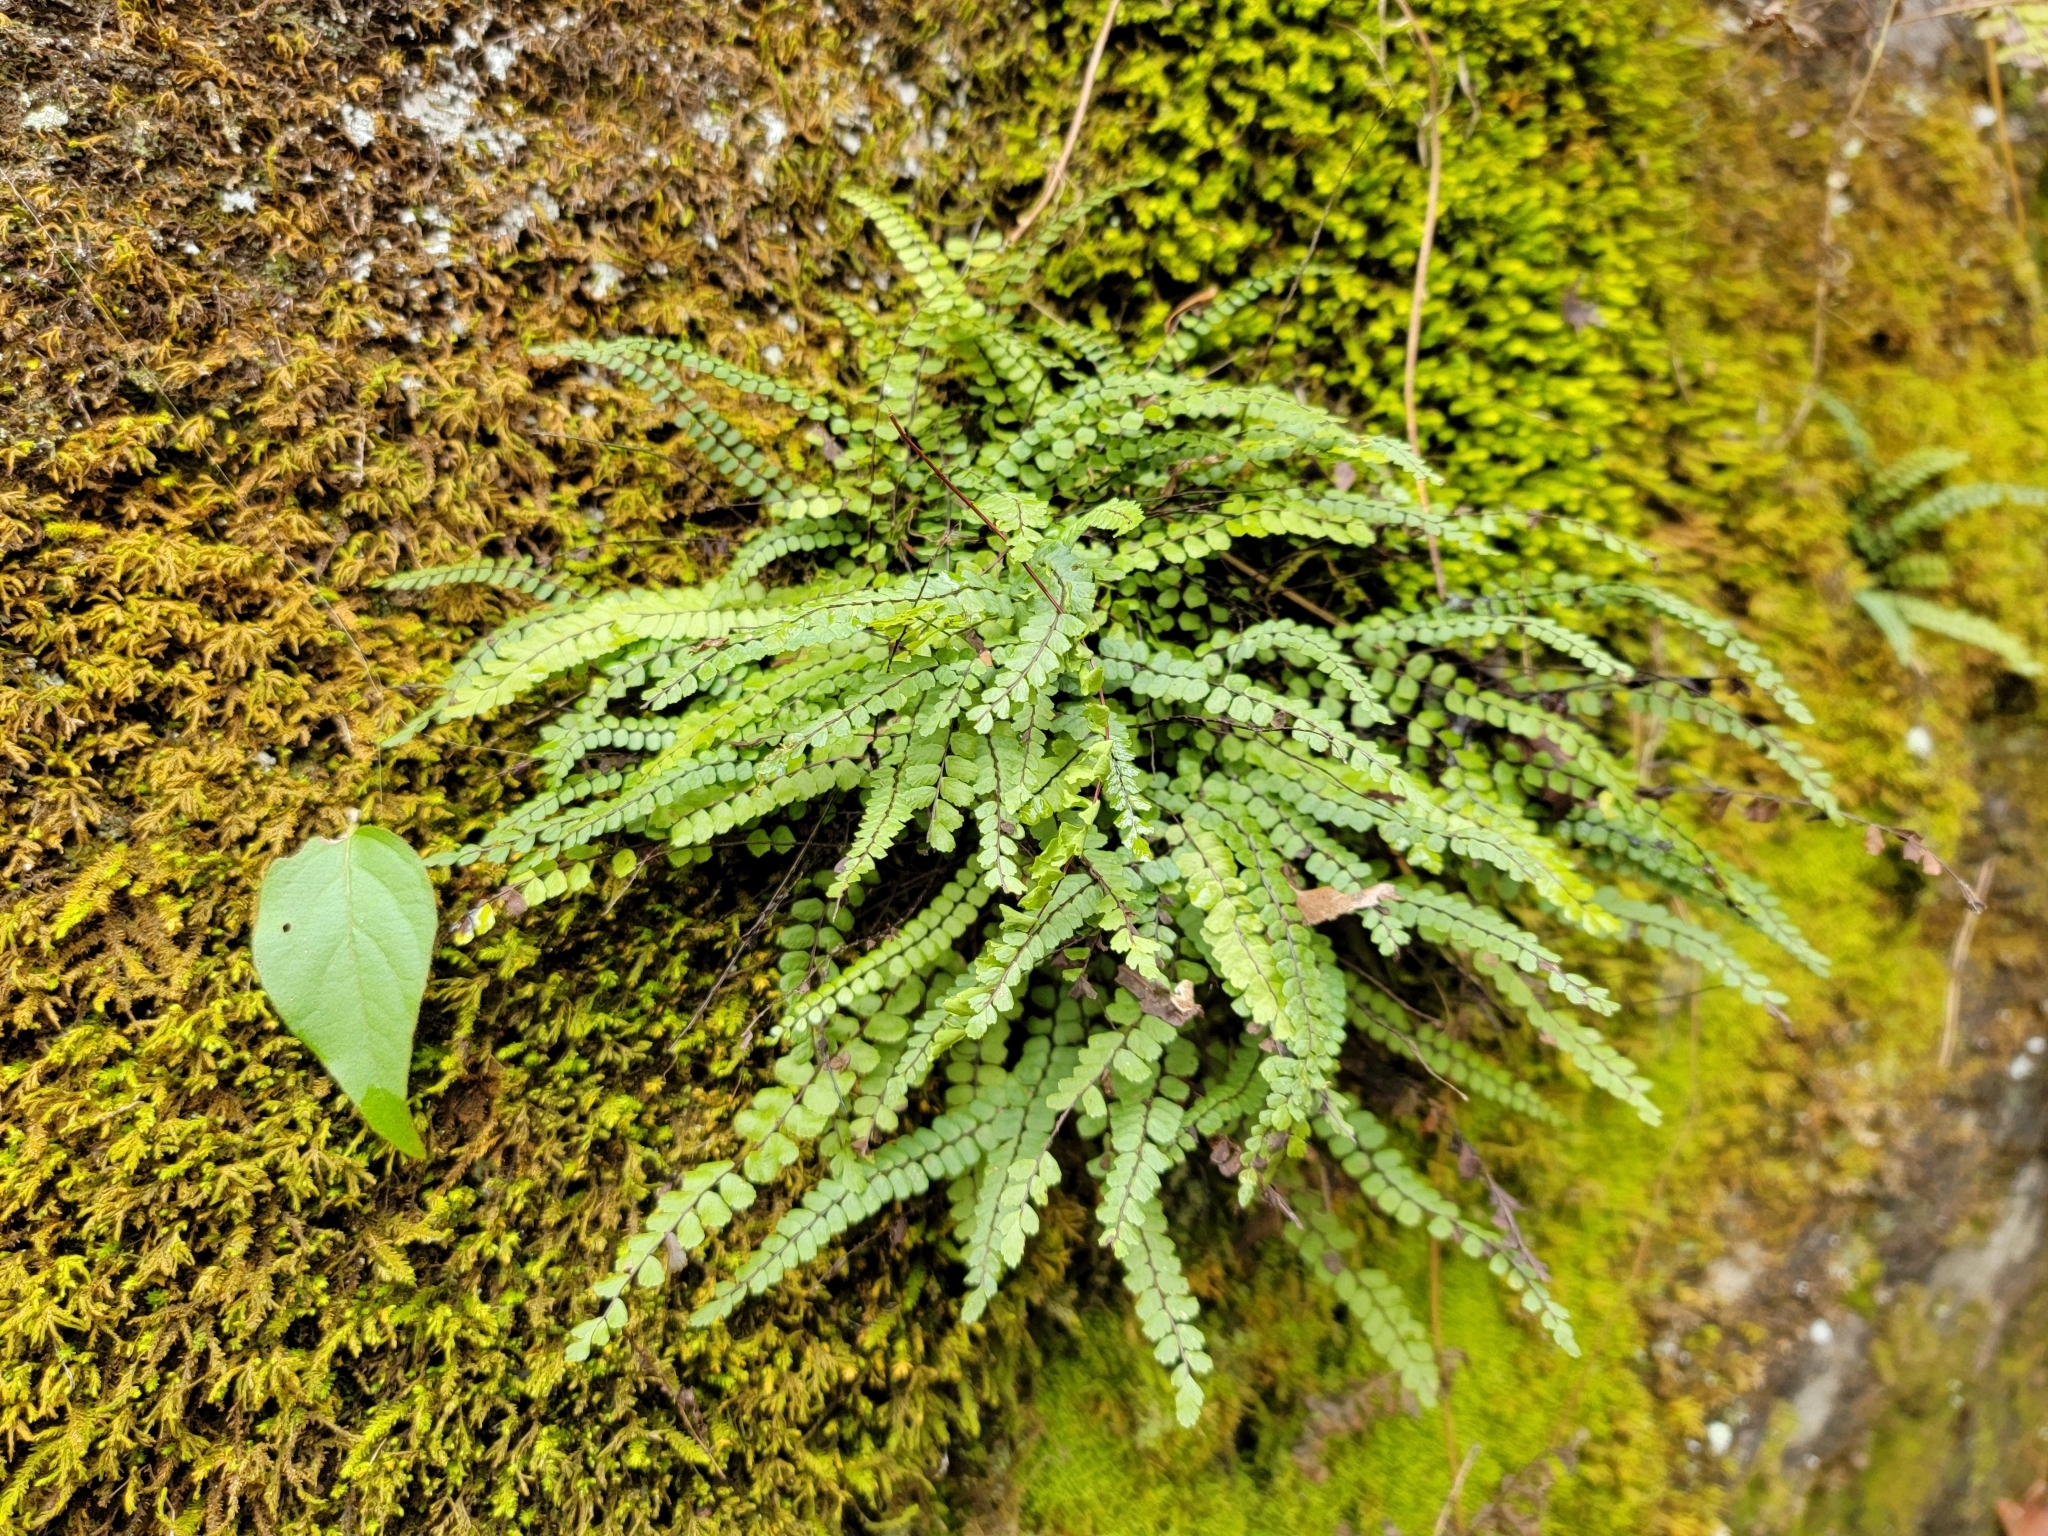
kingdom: Plantae
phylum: Tracheophyta
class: Polypodiopsida
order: Polypodiales
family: Aspleniaceae
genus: Asplenium
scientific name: Asplenium trichomanes
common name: Maidenhair spleenwort
